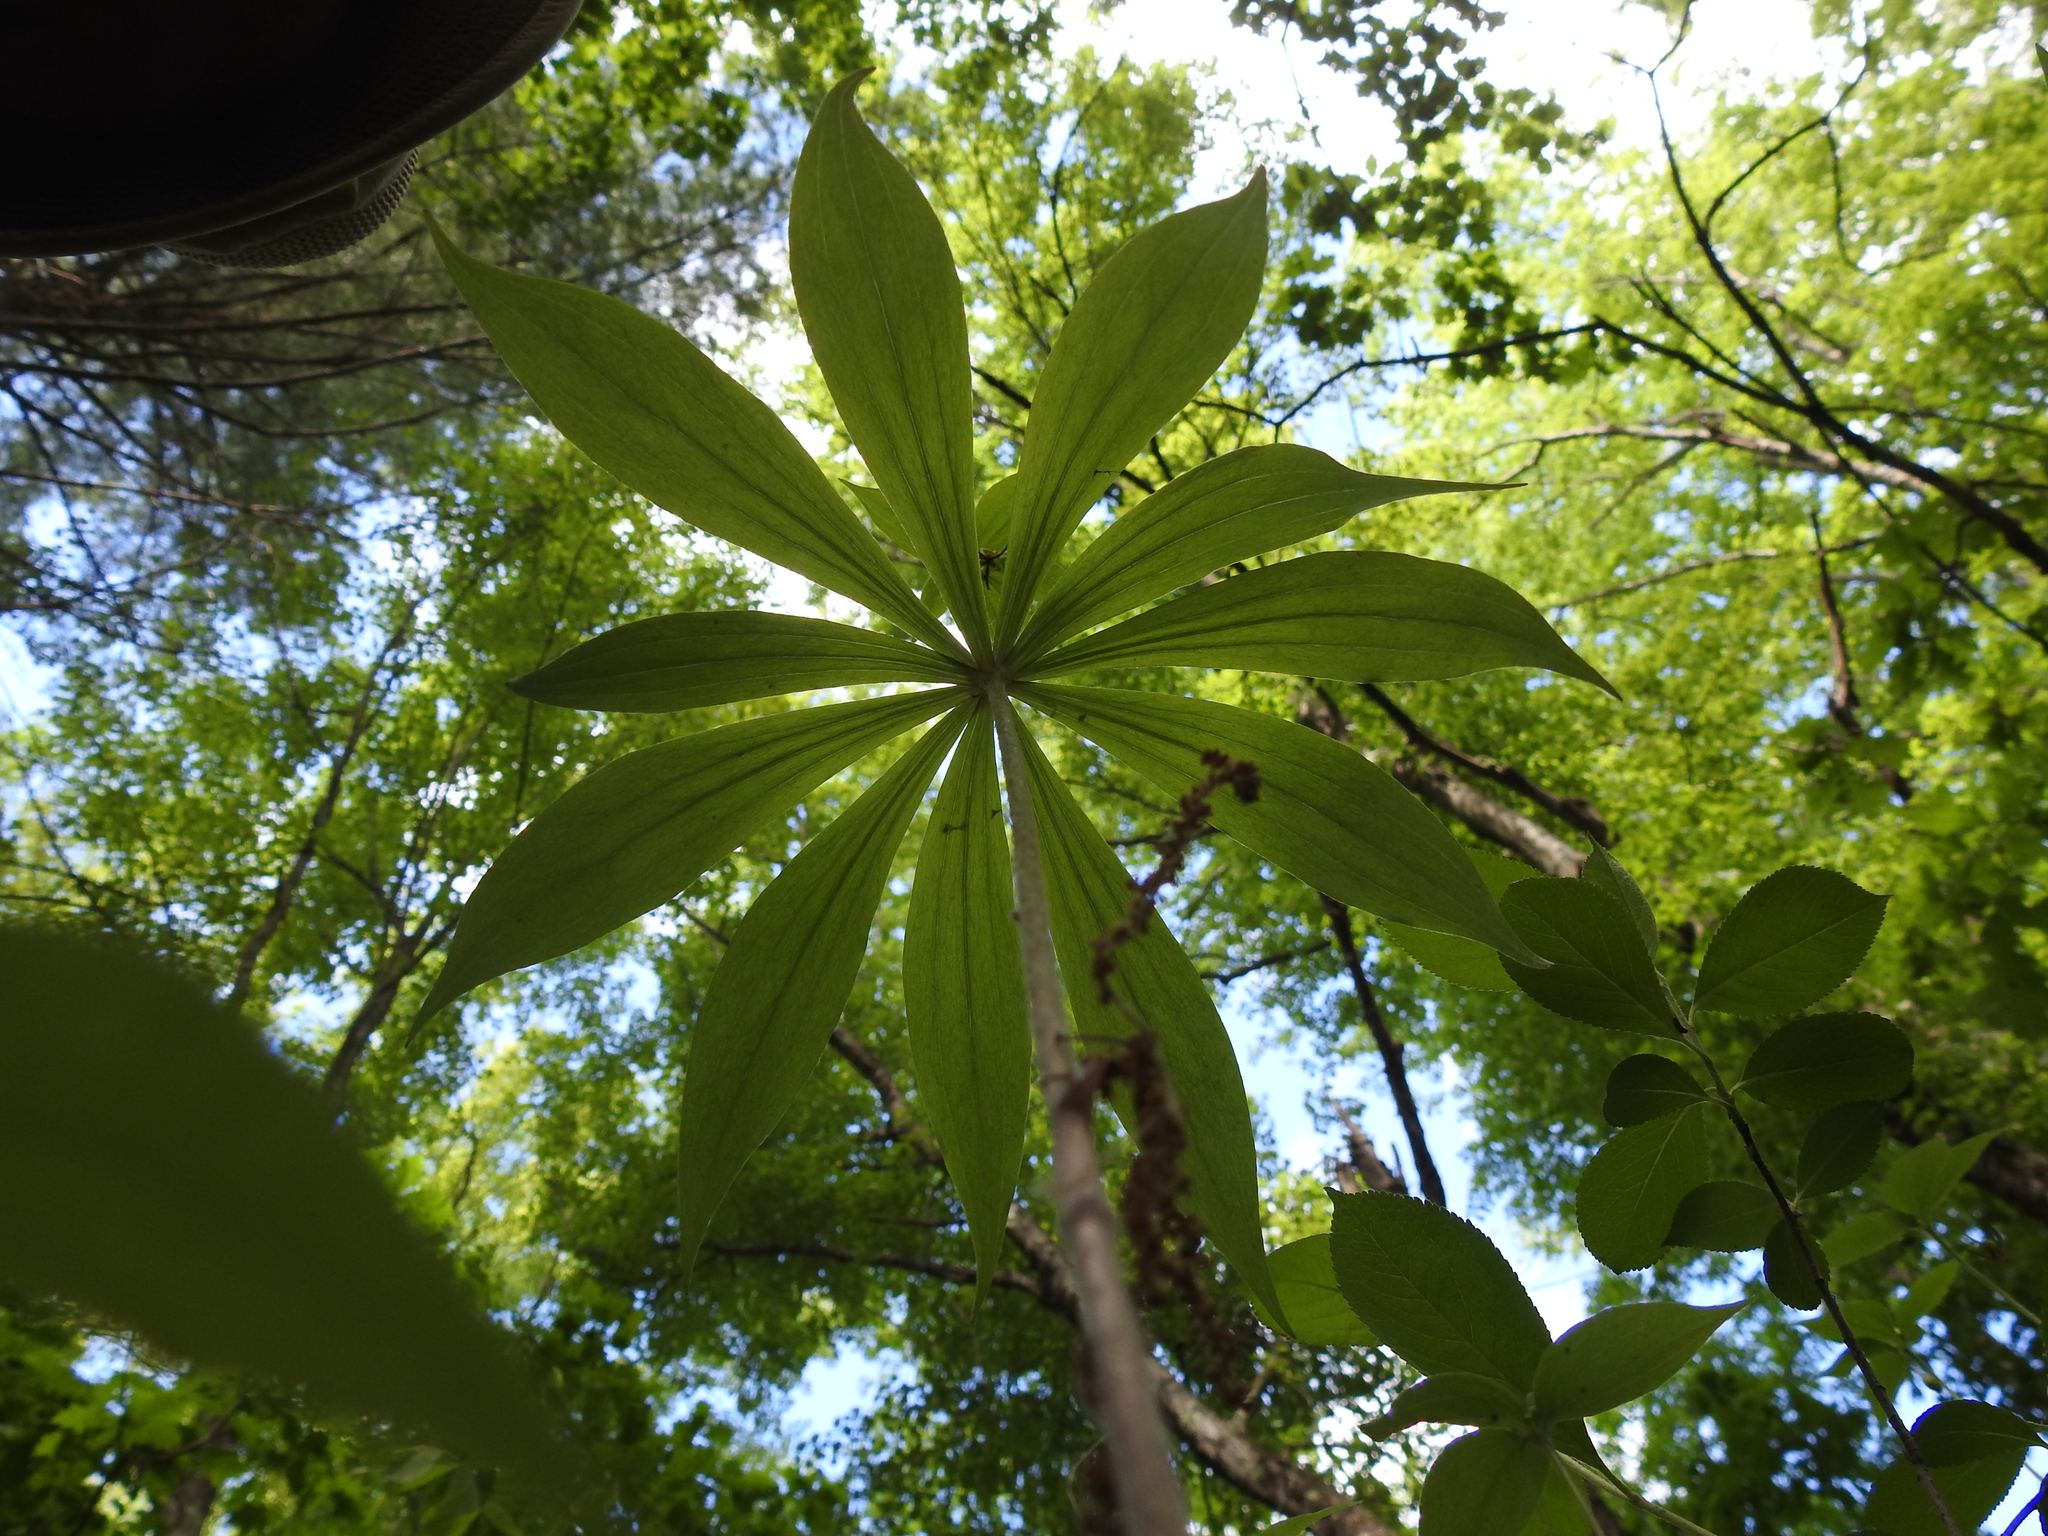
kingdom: Plantae
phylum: Tracheophyta
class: Liliopsida
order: Liliales
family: Liliaceae
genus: Medeola
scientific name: Medeola virginiana
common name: Indian cucumber-root
